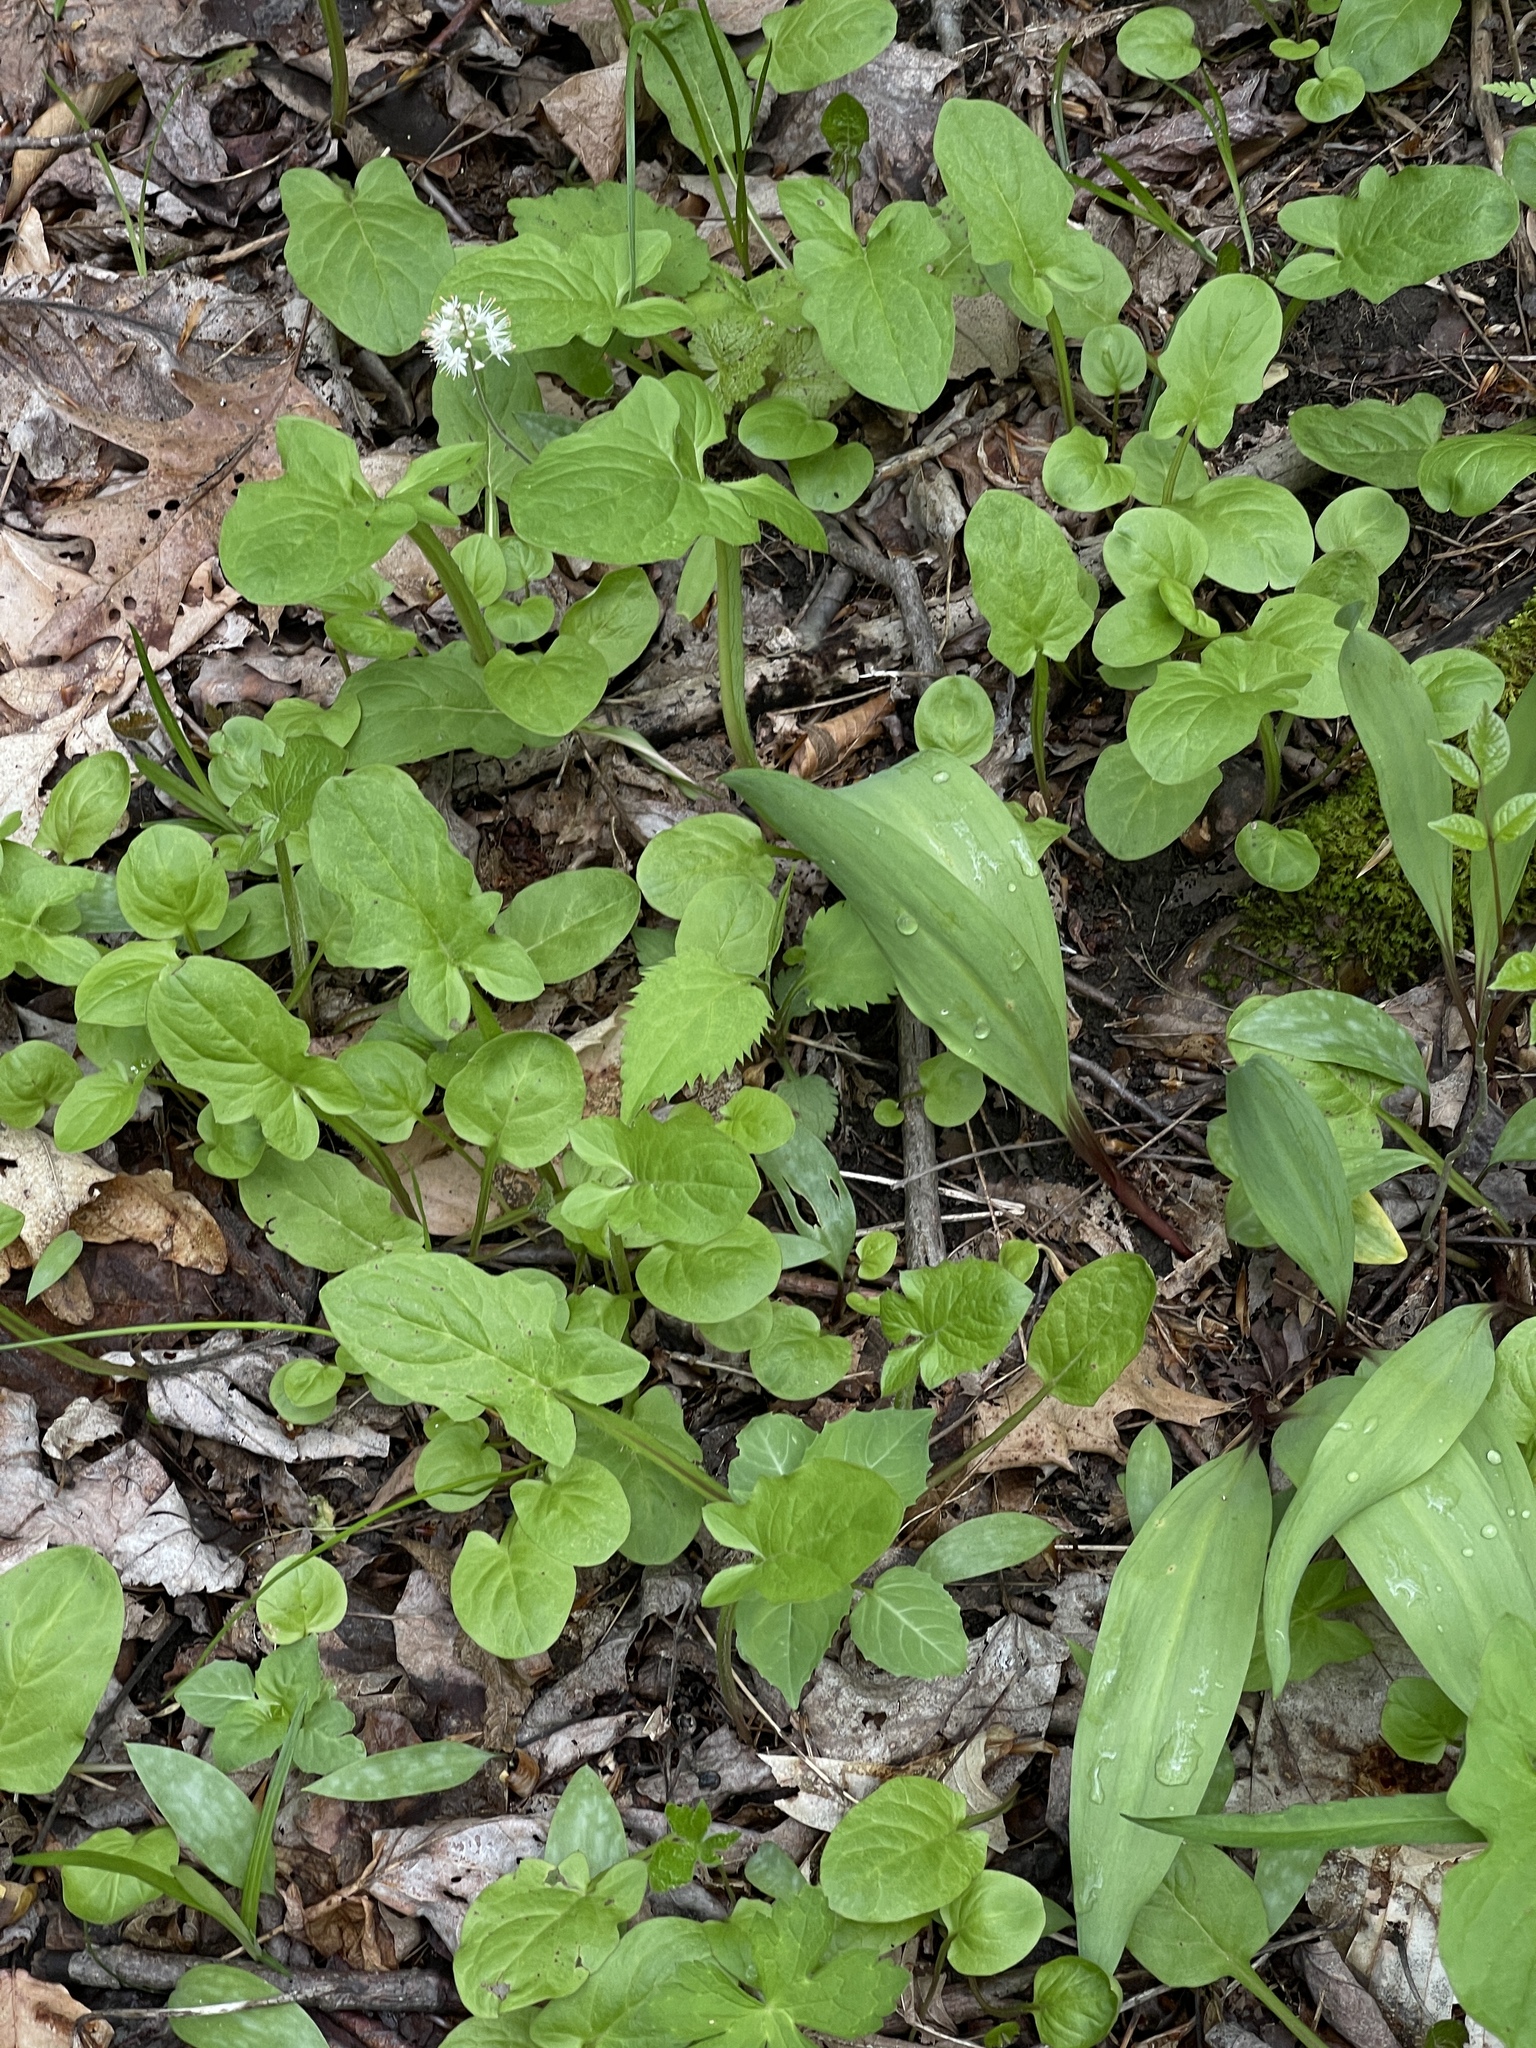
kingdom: Plantae
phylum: Tracheophyta
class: Magnoliopsida
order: Asterales
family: Asteraceae
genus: Nabalus
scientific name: Nabalus crepidineus
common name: Nodding rattlesnakeroot
